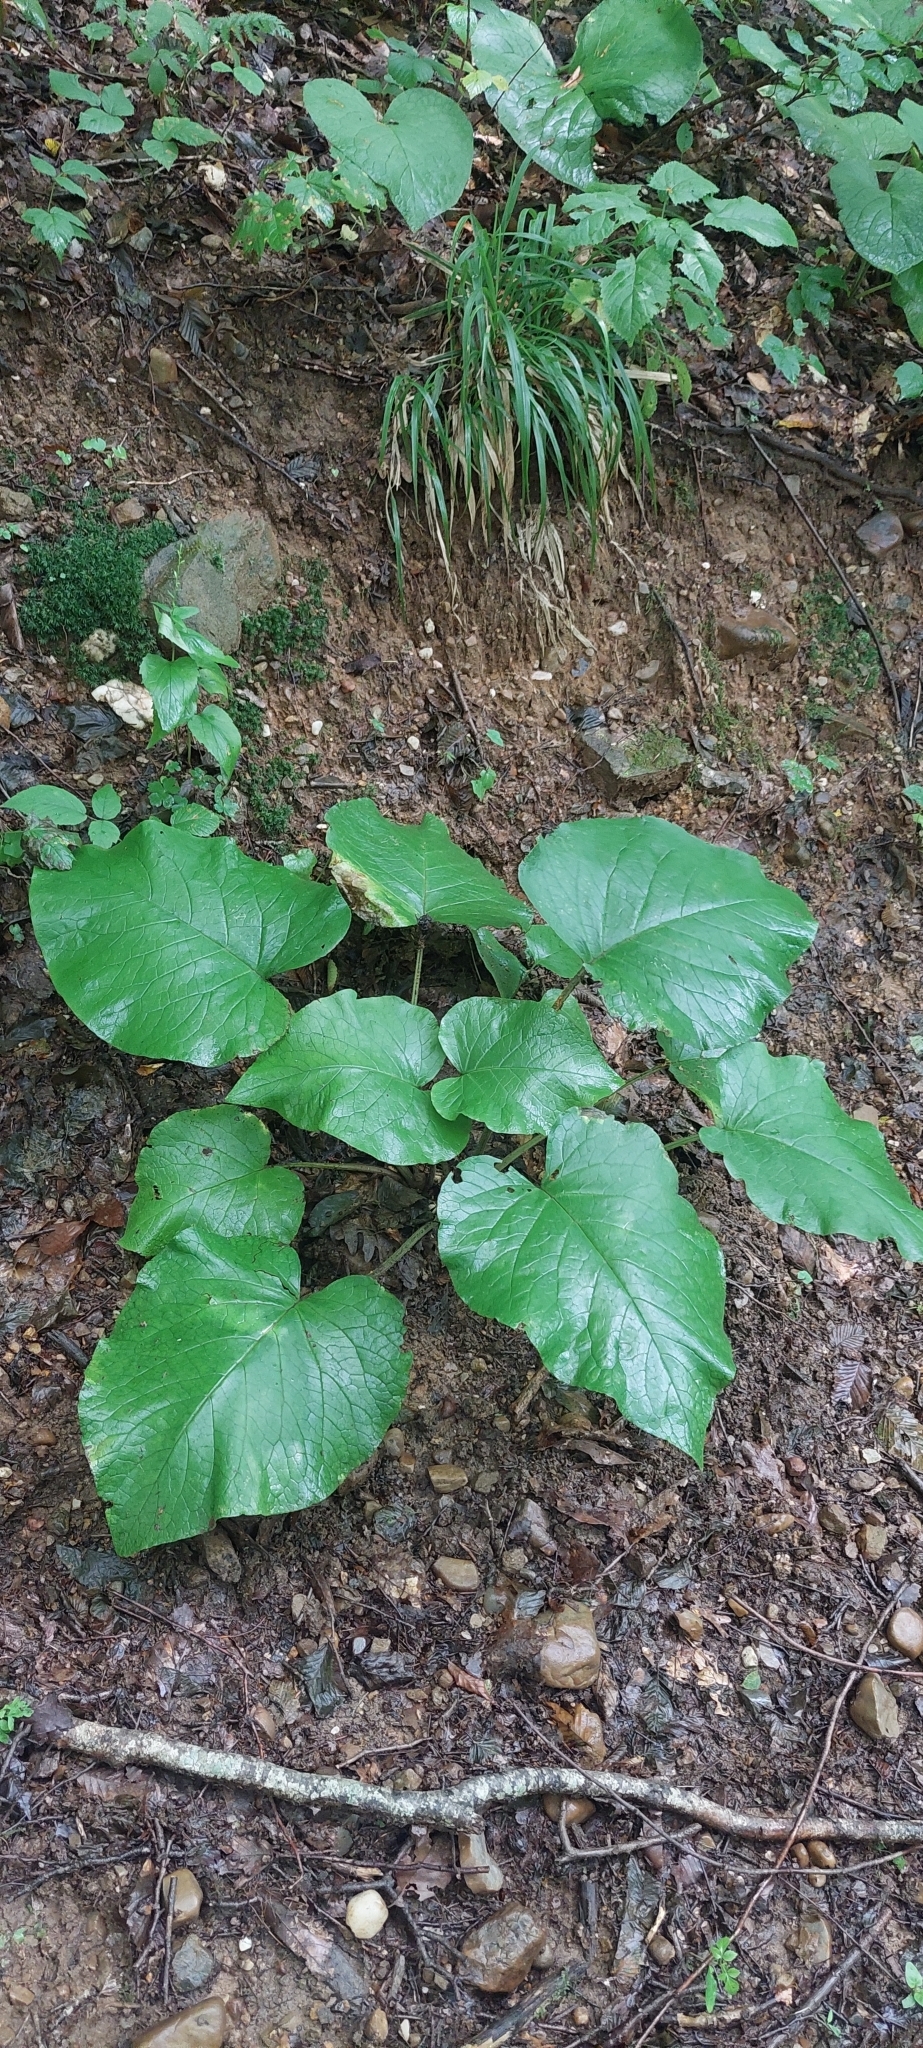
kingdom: Plantae
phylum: Tracheophyta
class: Magnoliopsida
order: Boraginales
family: Boraginaceae
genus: Trachystemon
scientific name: Trachystemon orientale
